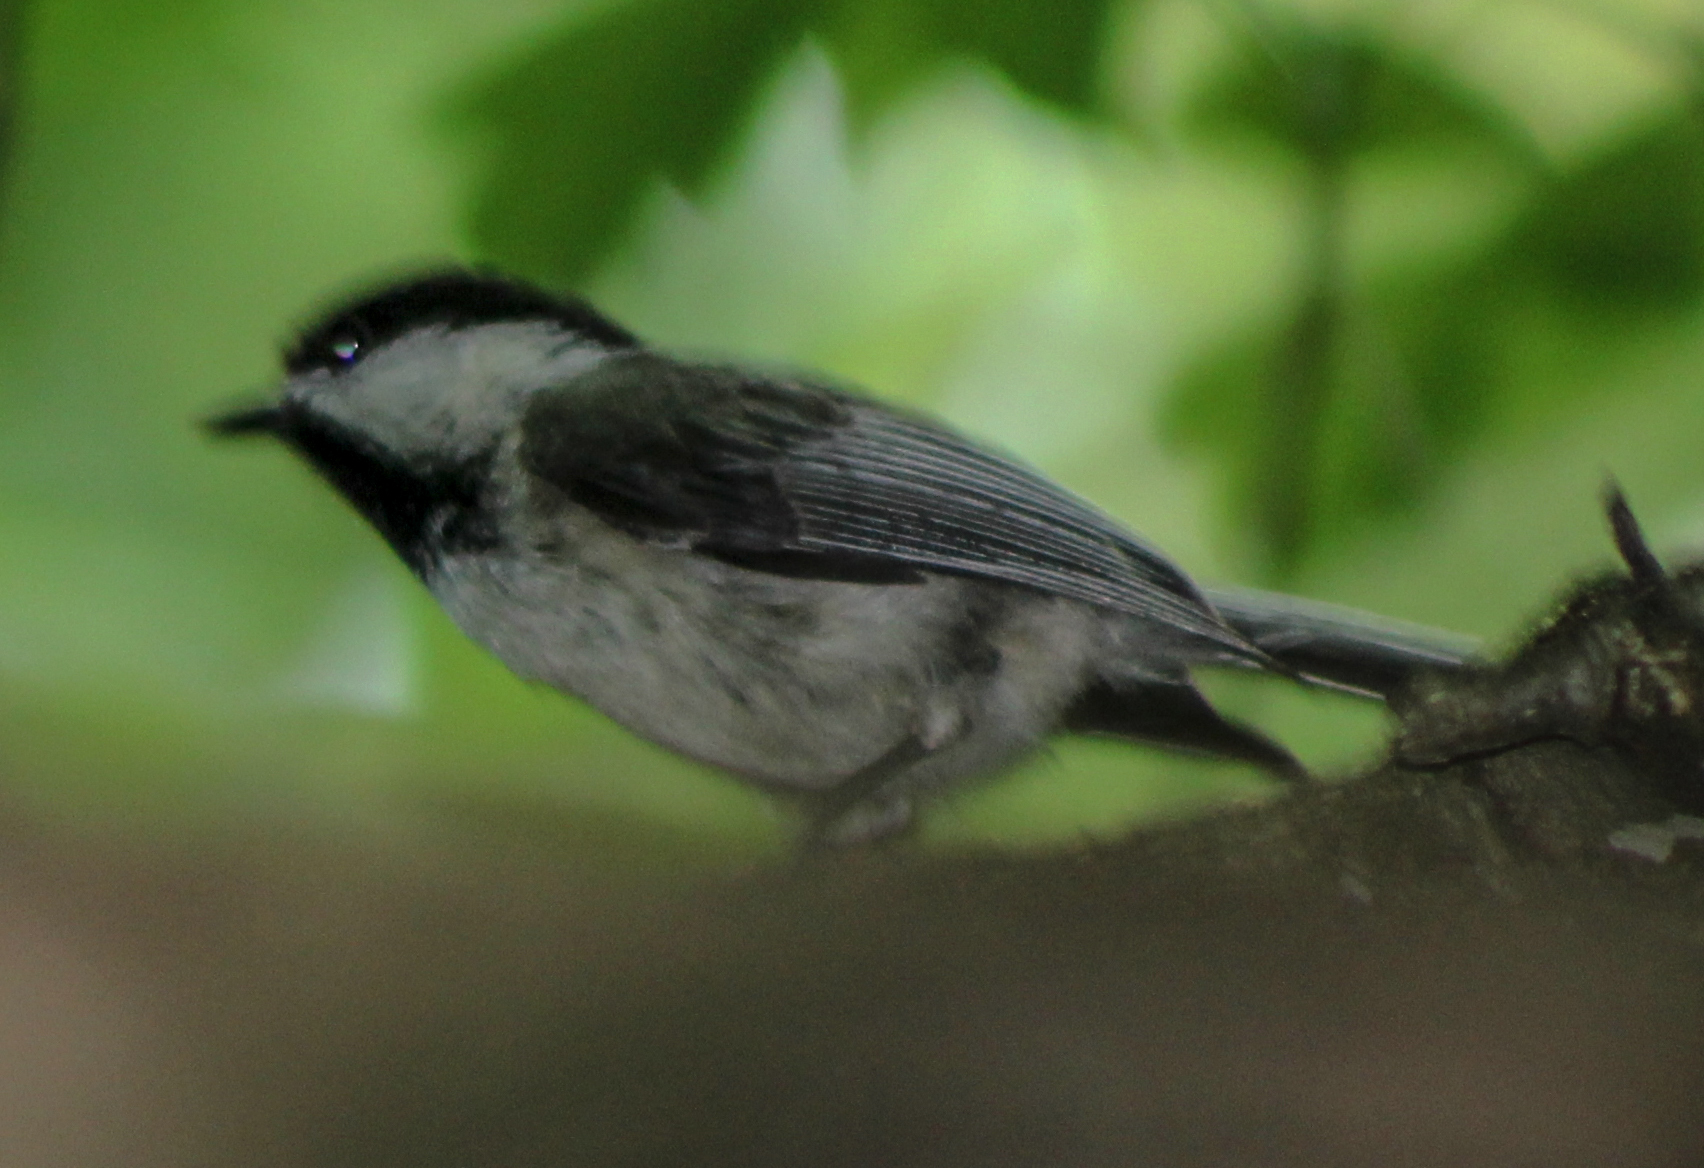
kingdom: Animalia
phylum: Chordata
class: Aves
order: Passeriformes
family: Paridae
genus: Poecile
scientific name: Poecile atricapillus
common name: Black-capped chickadee
